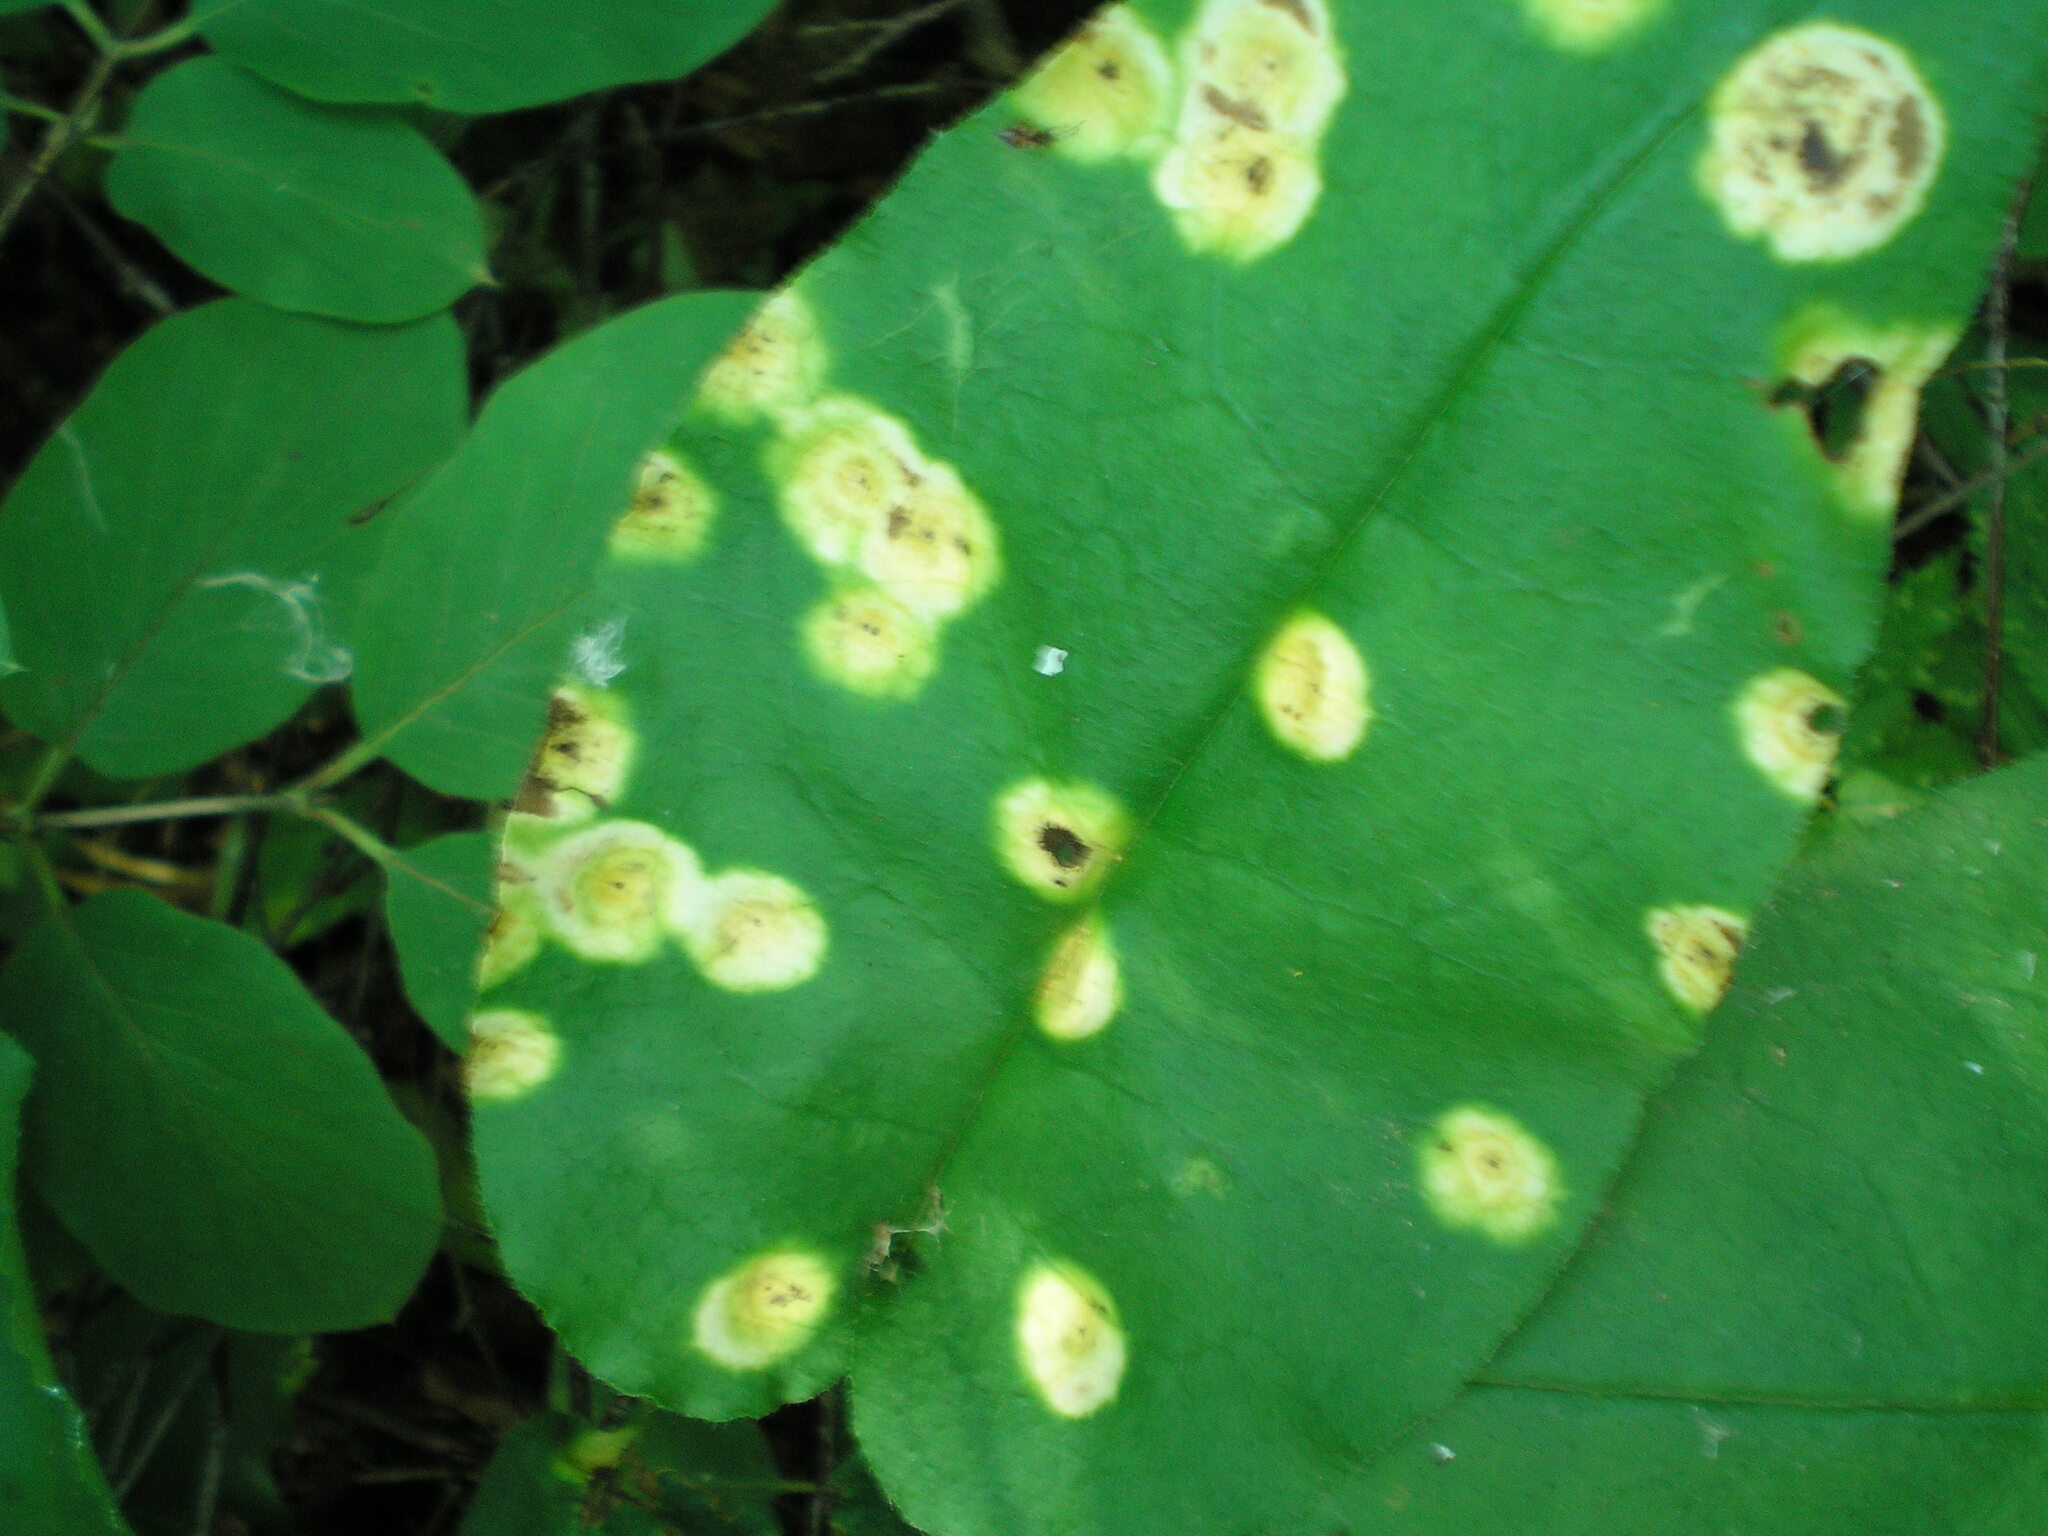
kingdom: Fungi
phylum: Basidiomycota
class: Pucciniomycetes
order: Pucciniales
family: Pucciniaceae
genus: Puccinia
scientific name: Puccinia bromina
